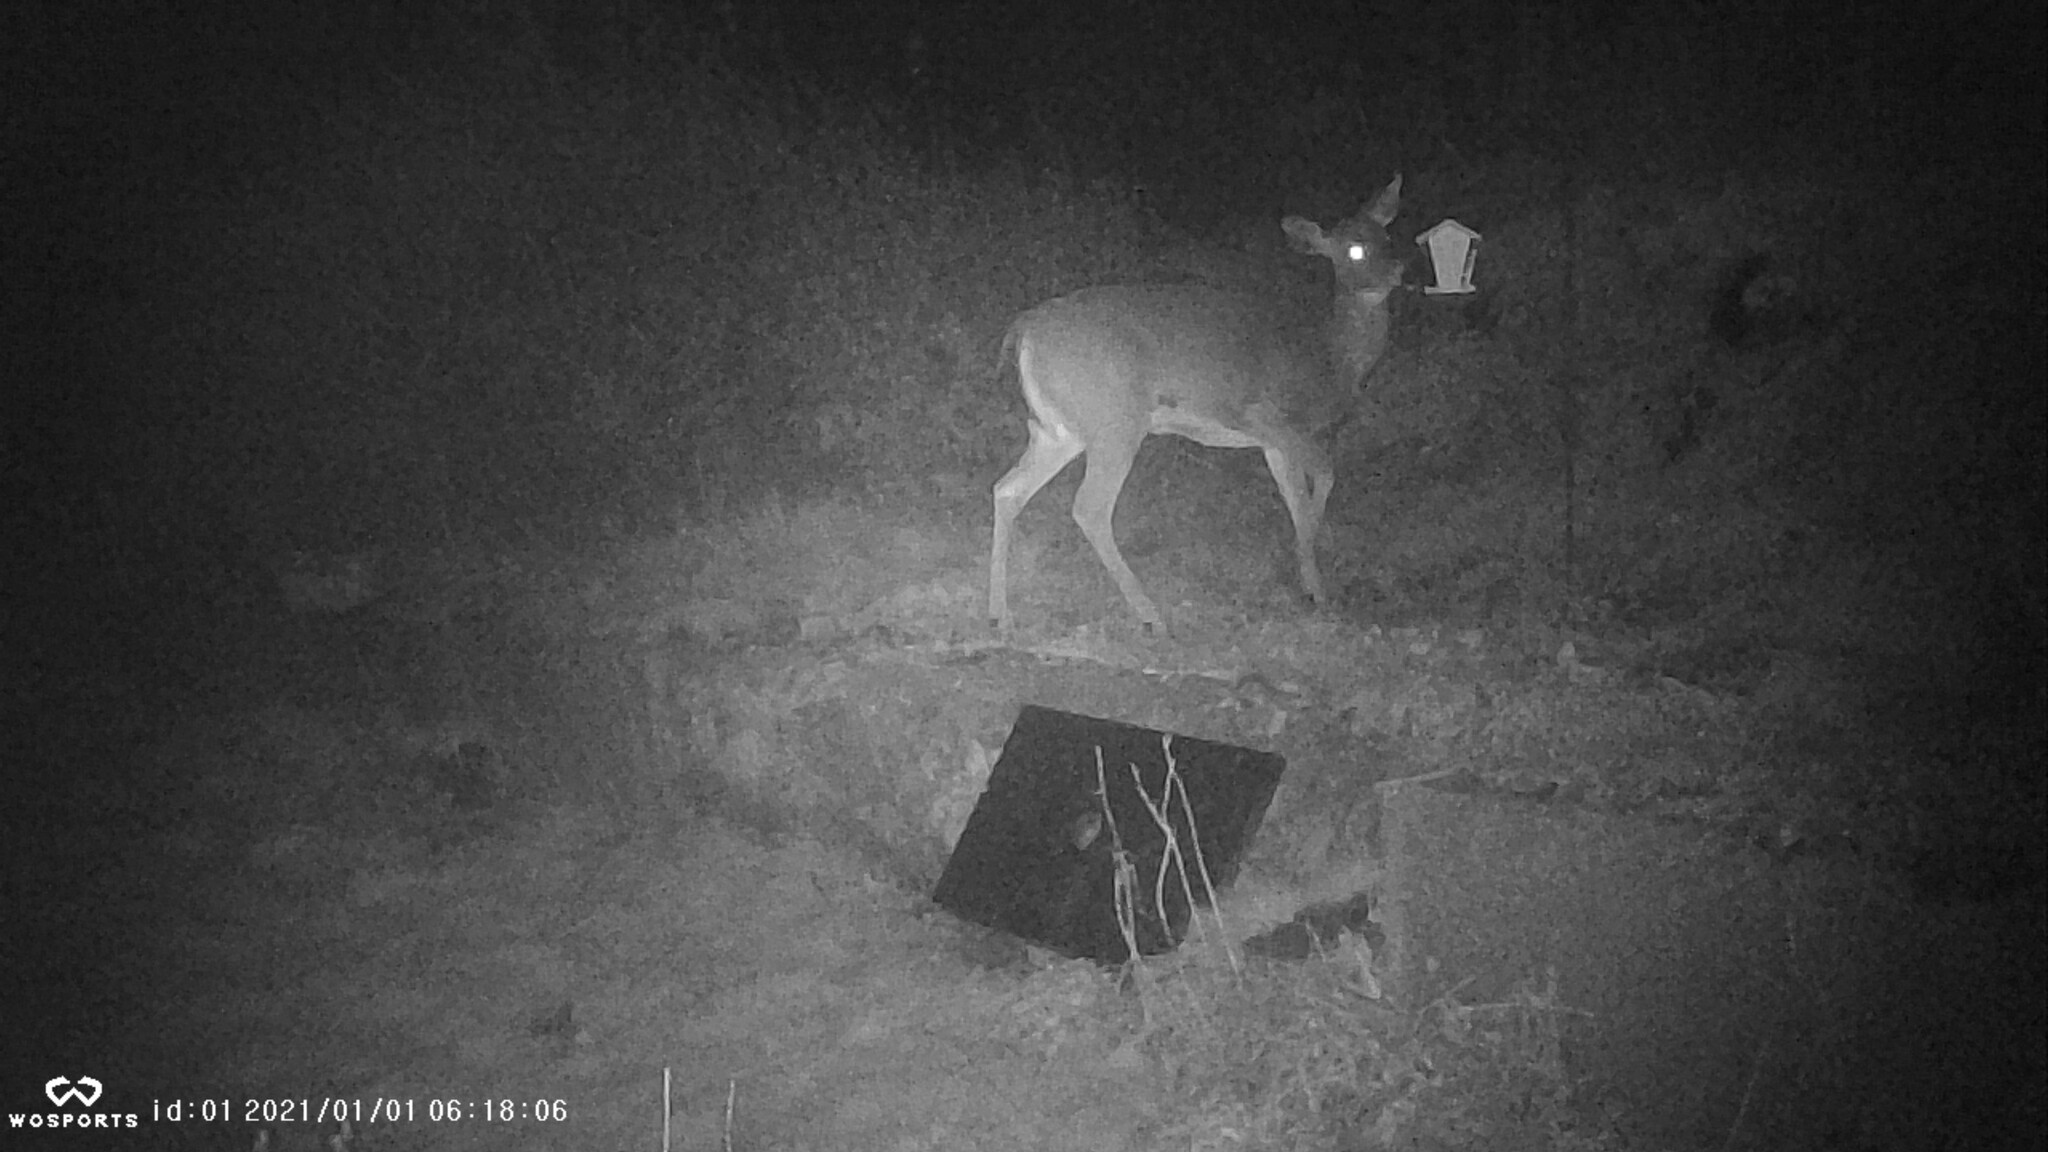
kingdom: Animalia
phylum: Chordata
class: Mammalia
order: Artiodactyla
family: Cervidae
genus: Odocoileus
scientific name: Odocoileus virginianus
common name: White-tailed deer
